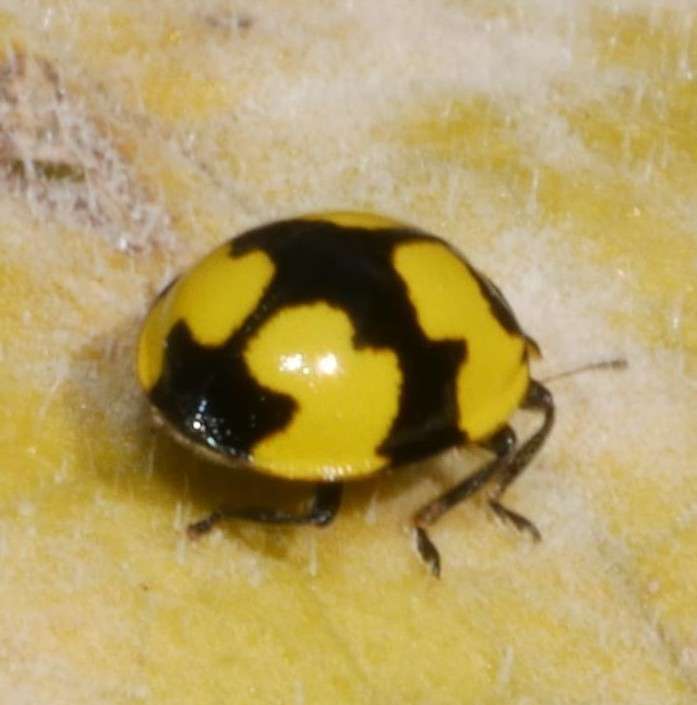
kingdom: Animalia
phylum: Arthropoda
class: Insecta
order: Coleoptera
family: Coccinellidae
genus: Illeis
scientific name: Illeis galbula
